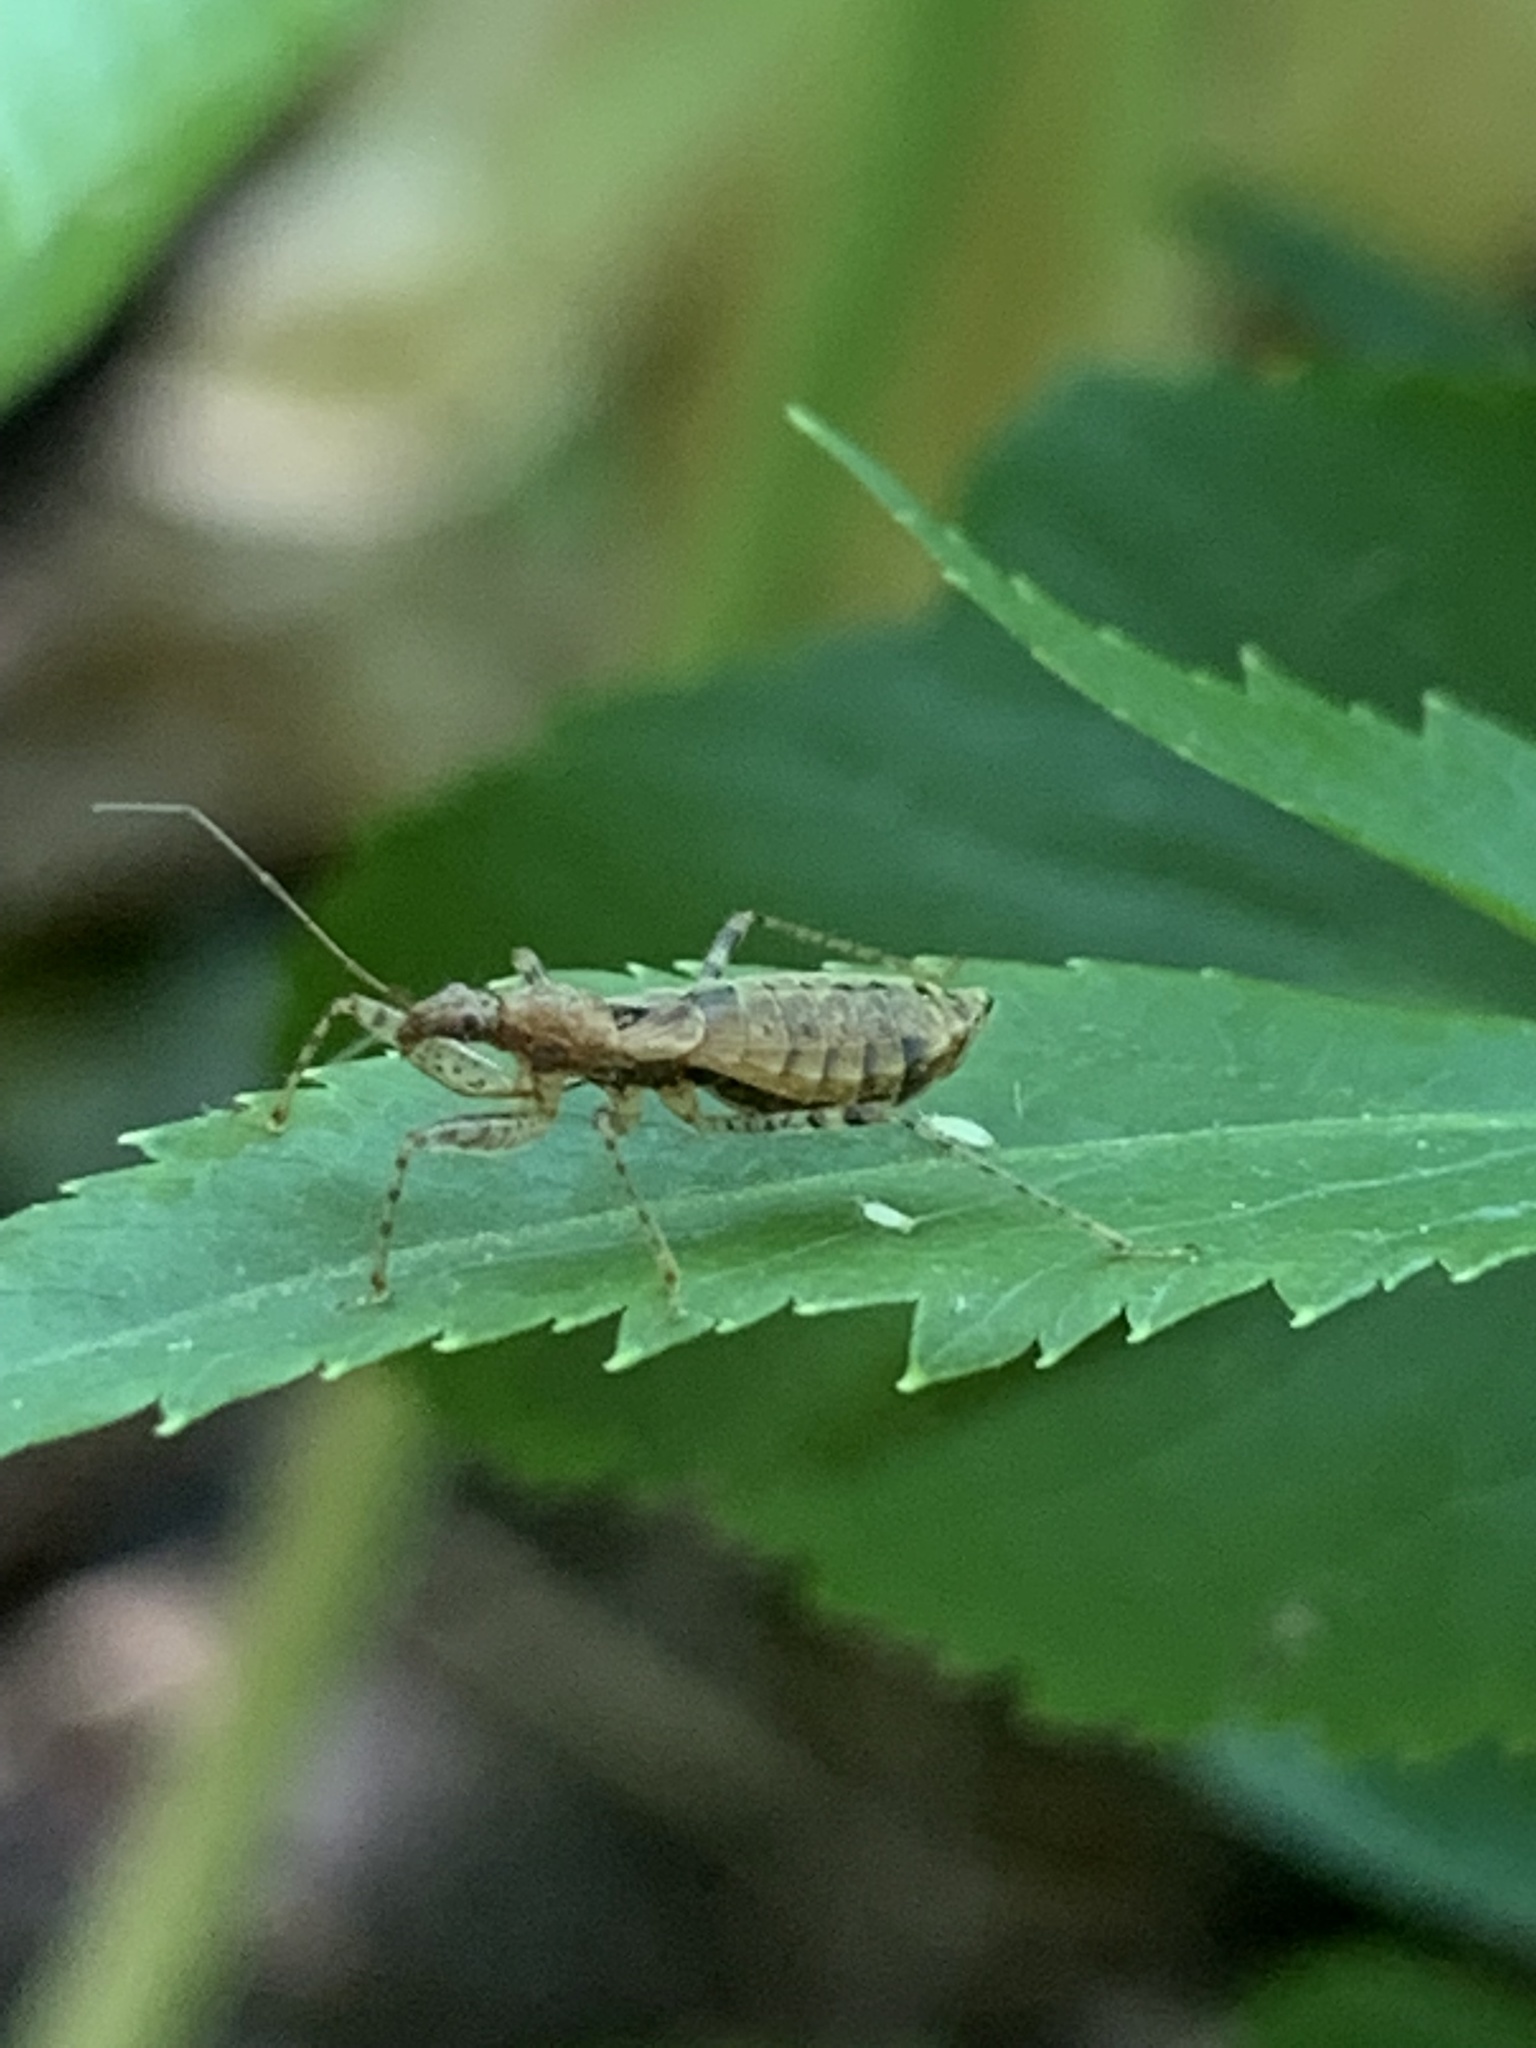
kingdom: Animalia
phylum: Arthropoda
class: Insecta
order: Hemiptera
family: Nabidae
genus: Hoplistoscelis
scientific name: Hoplistoscelis pallescens
